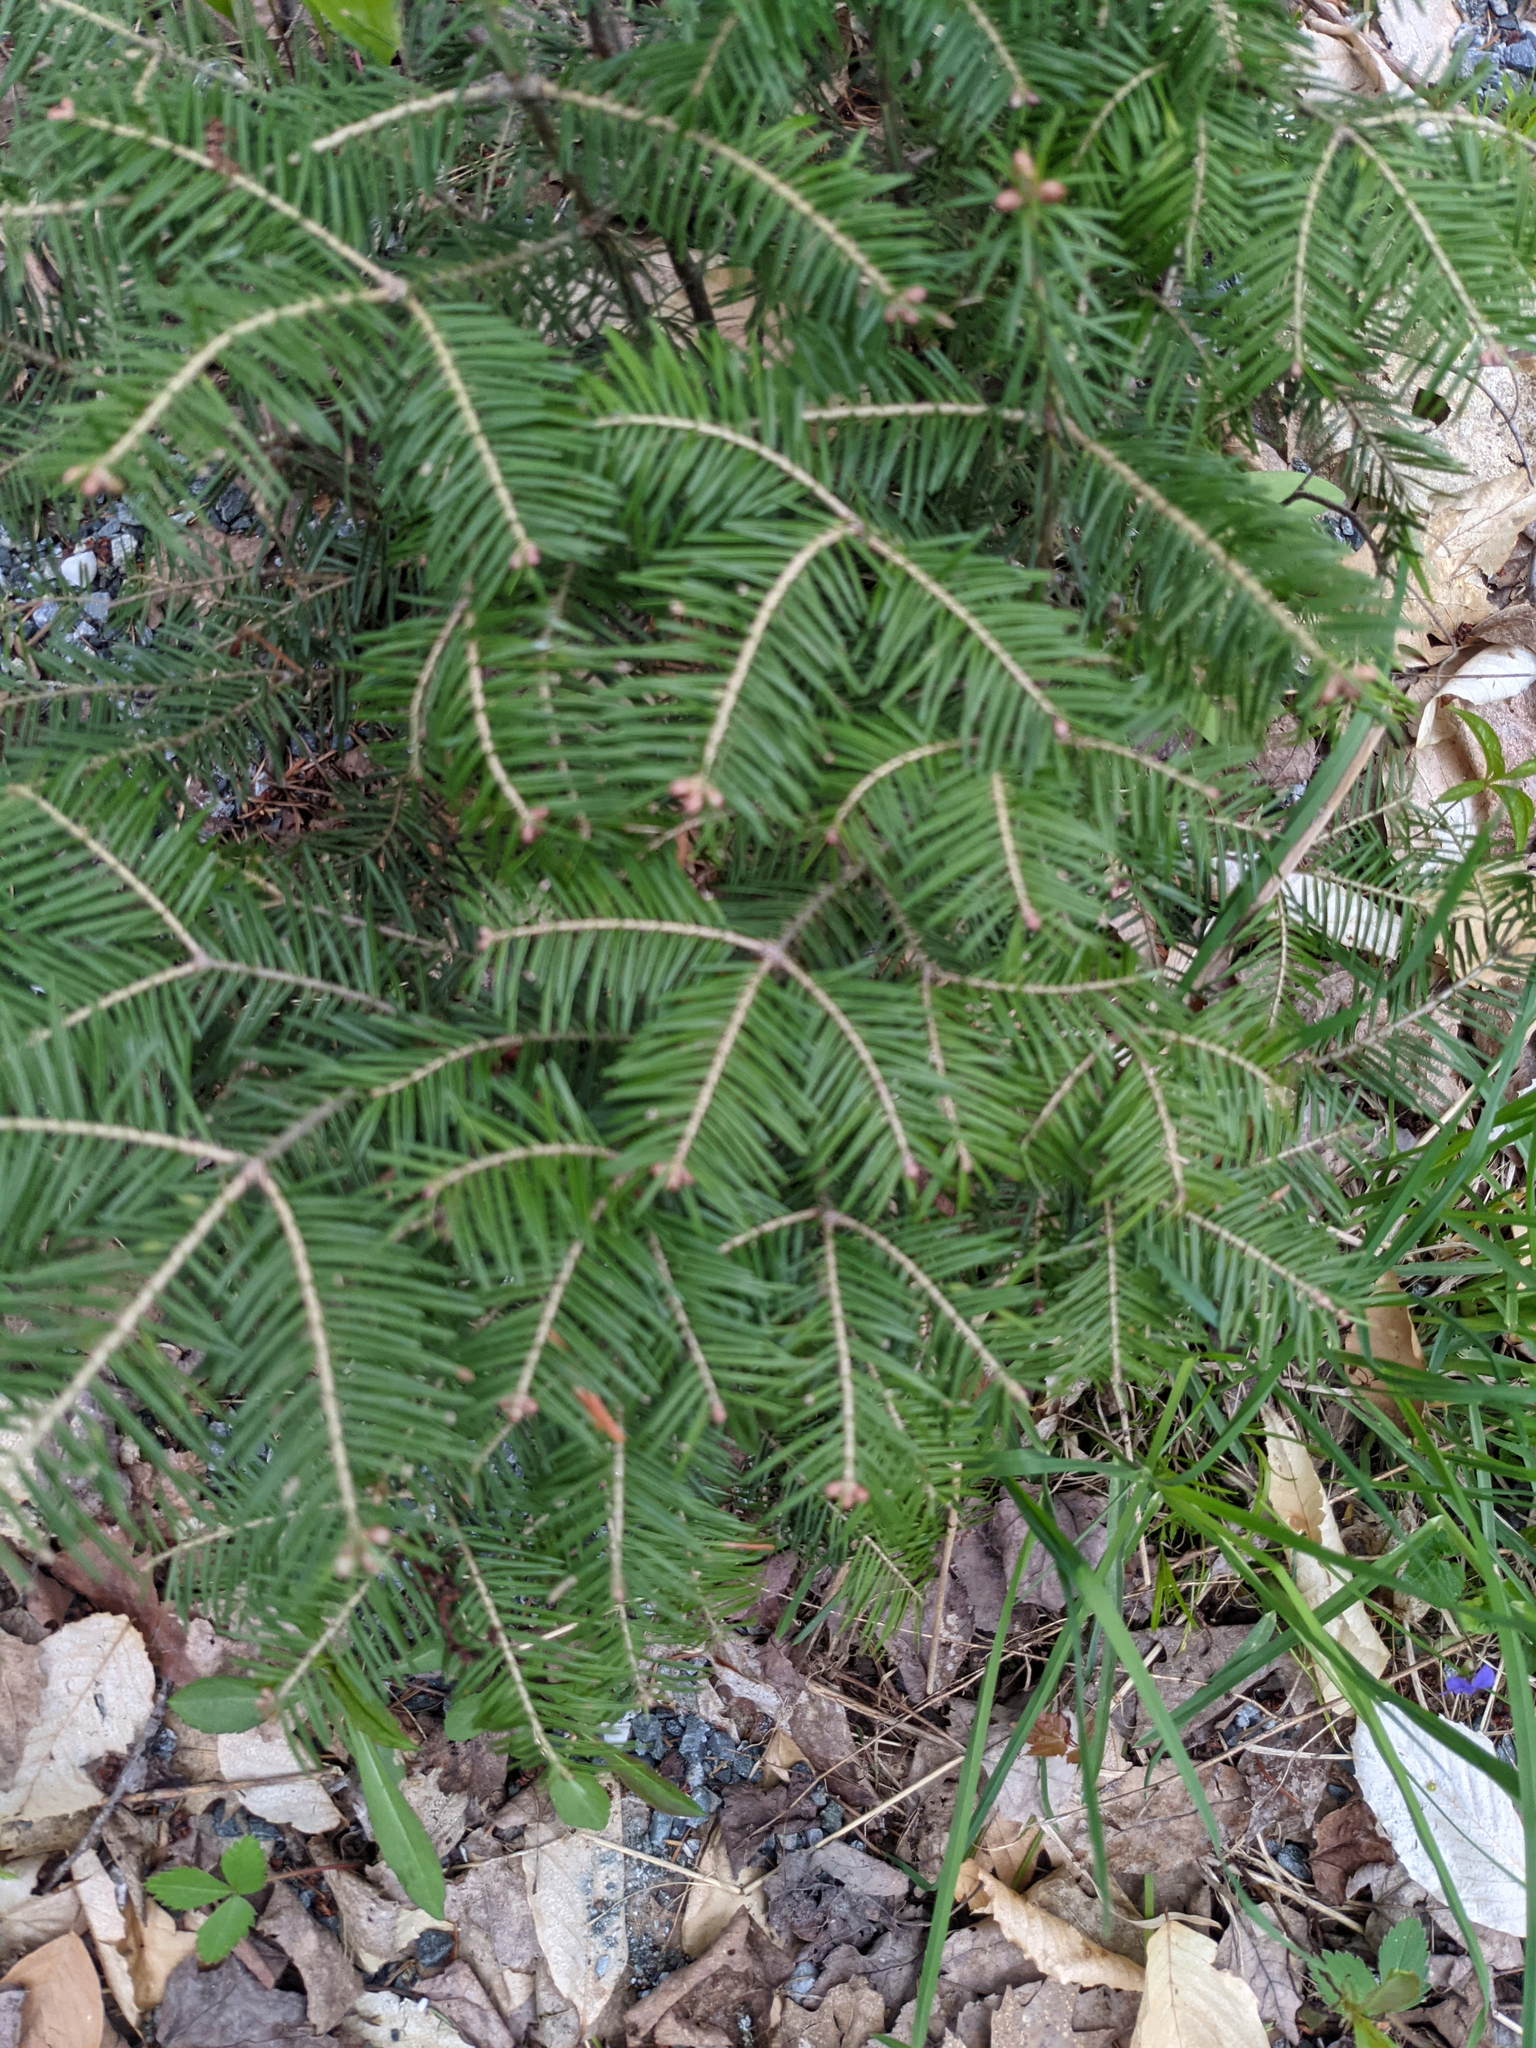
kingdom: Plantae
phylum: Tracheophyta
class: Pinopsida
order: Pinales
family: Pinaceae
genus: Abies
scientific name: Abies balsamea
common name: Balsam fir
